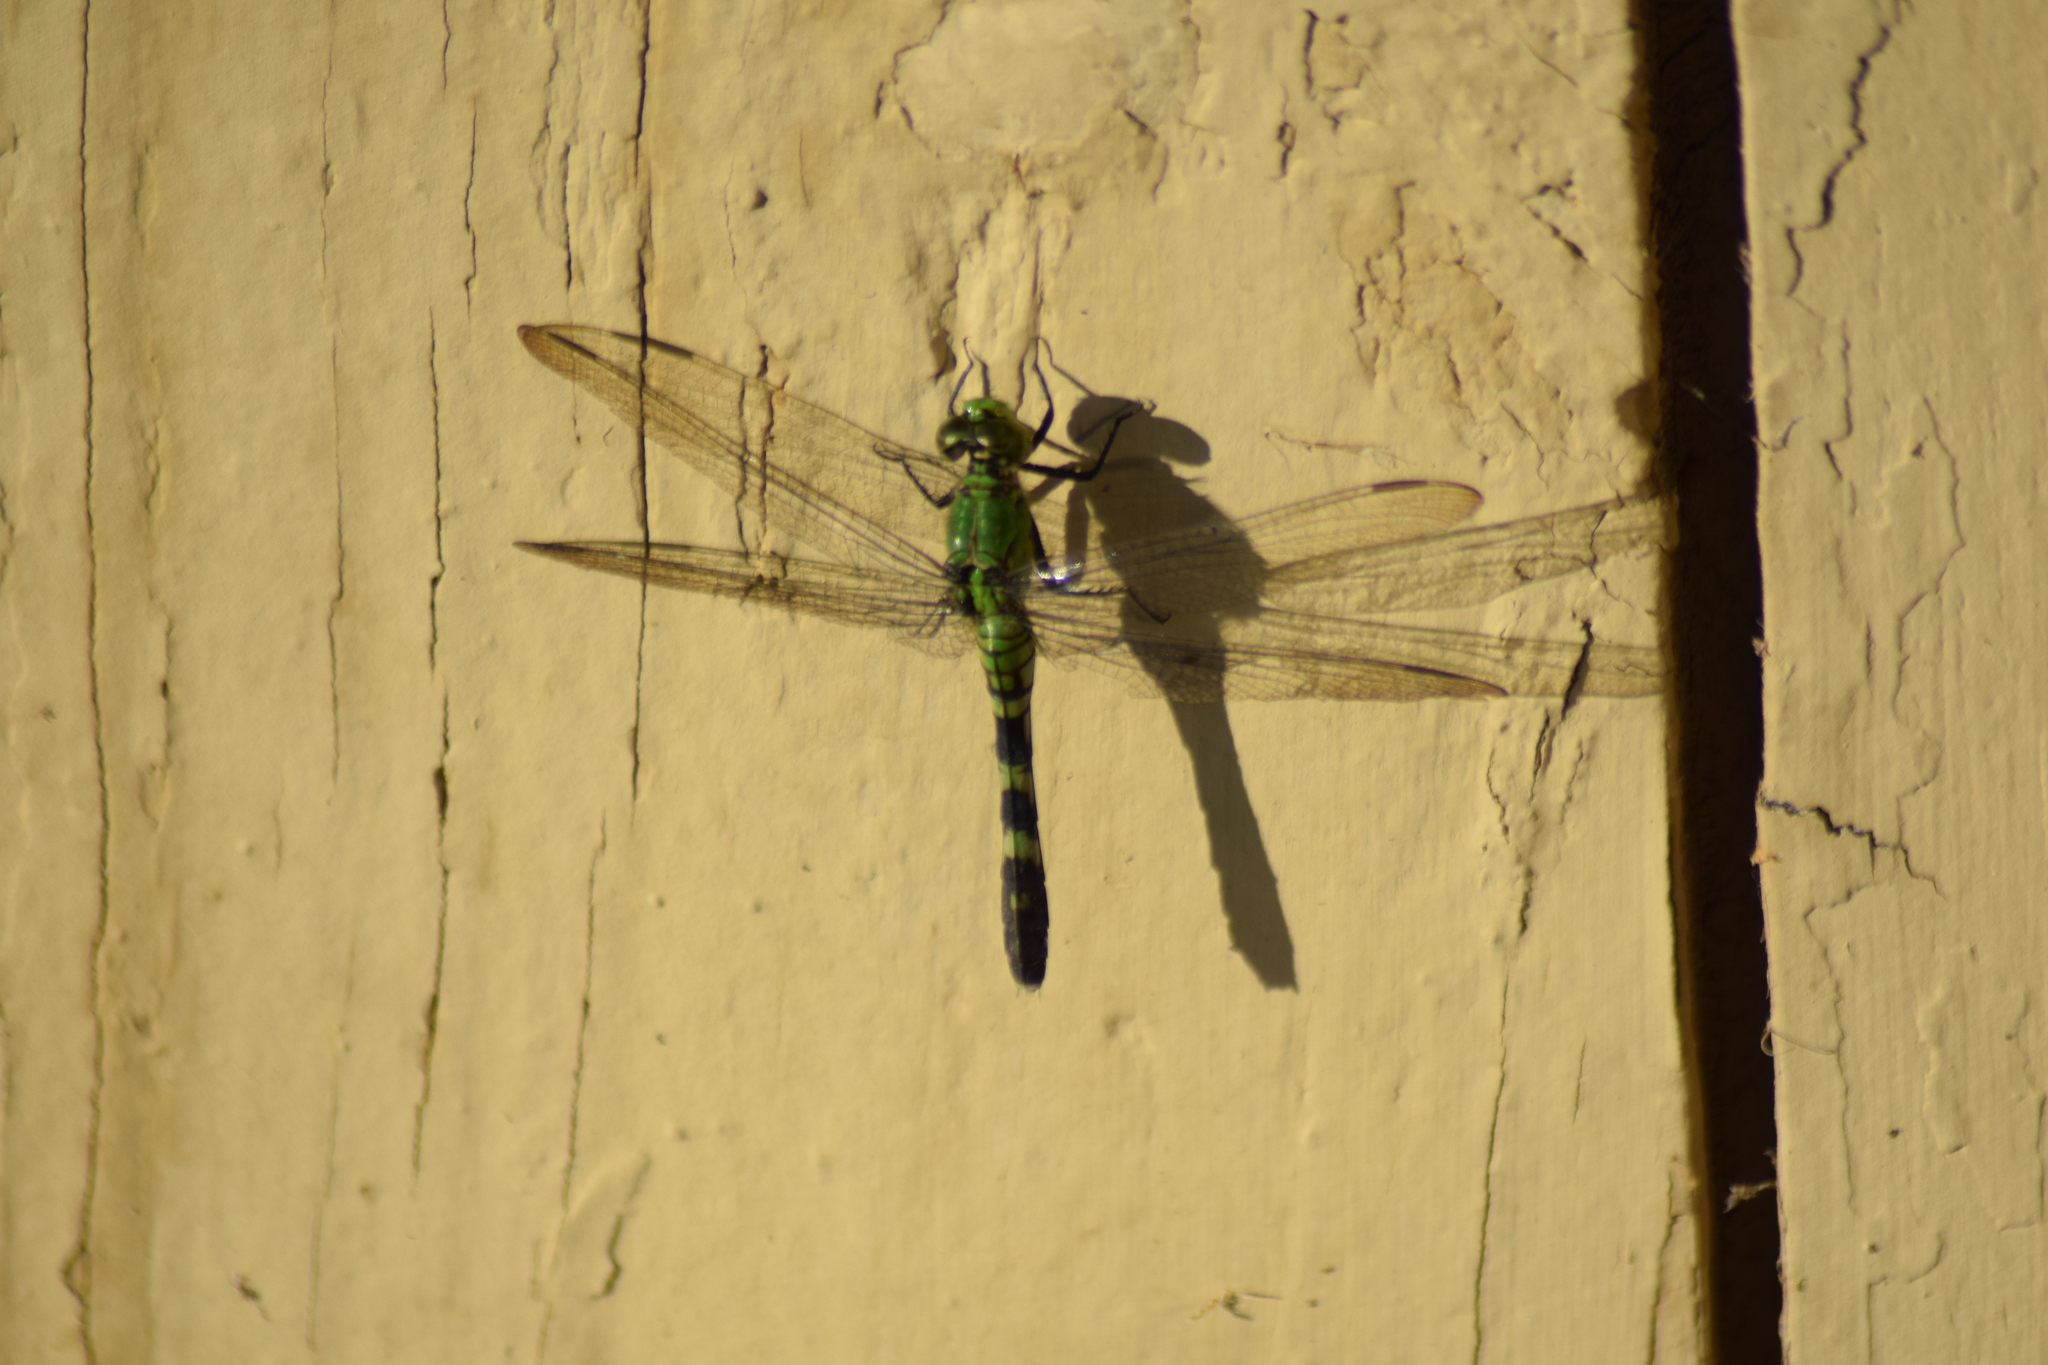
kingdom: Animalia
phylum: Arthropoda
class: Insecta
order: Odonata
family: Libellulidae
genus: Erythemis
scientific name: Erythemis simplicicollis
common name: Eastern pondhawk
